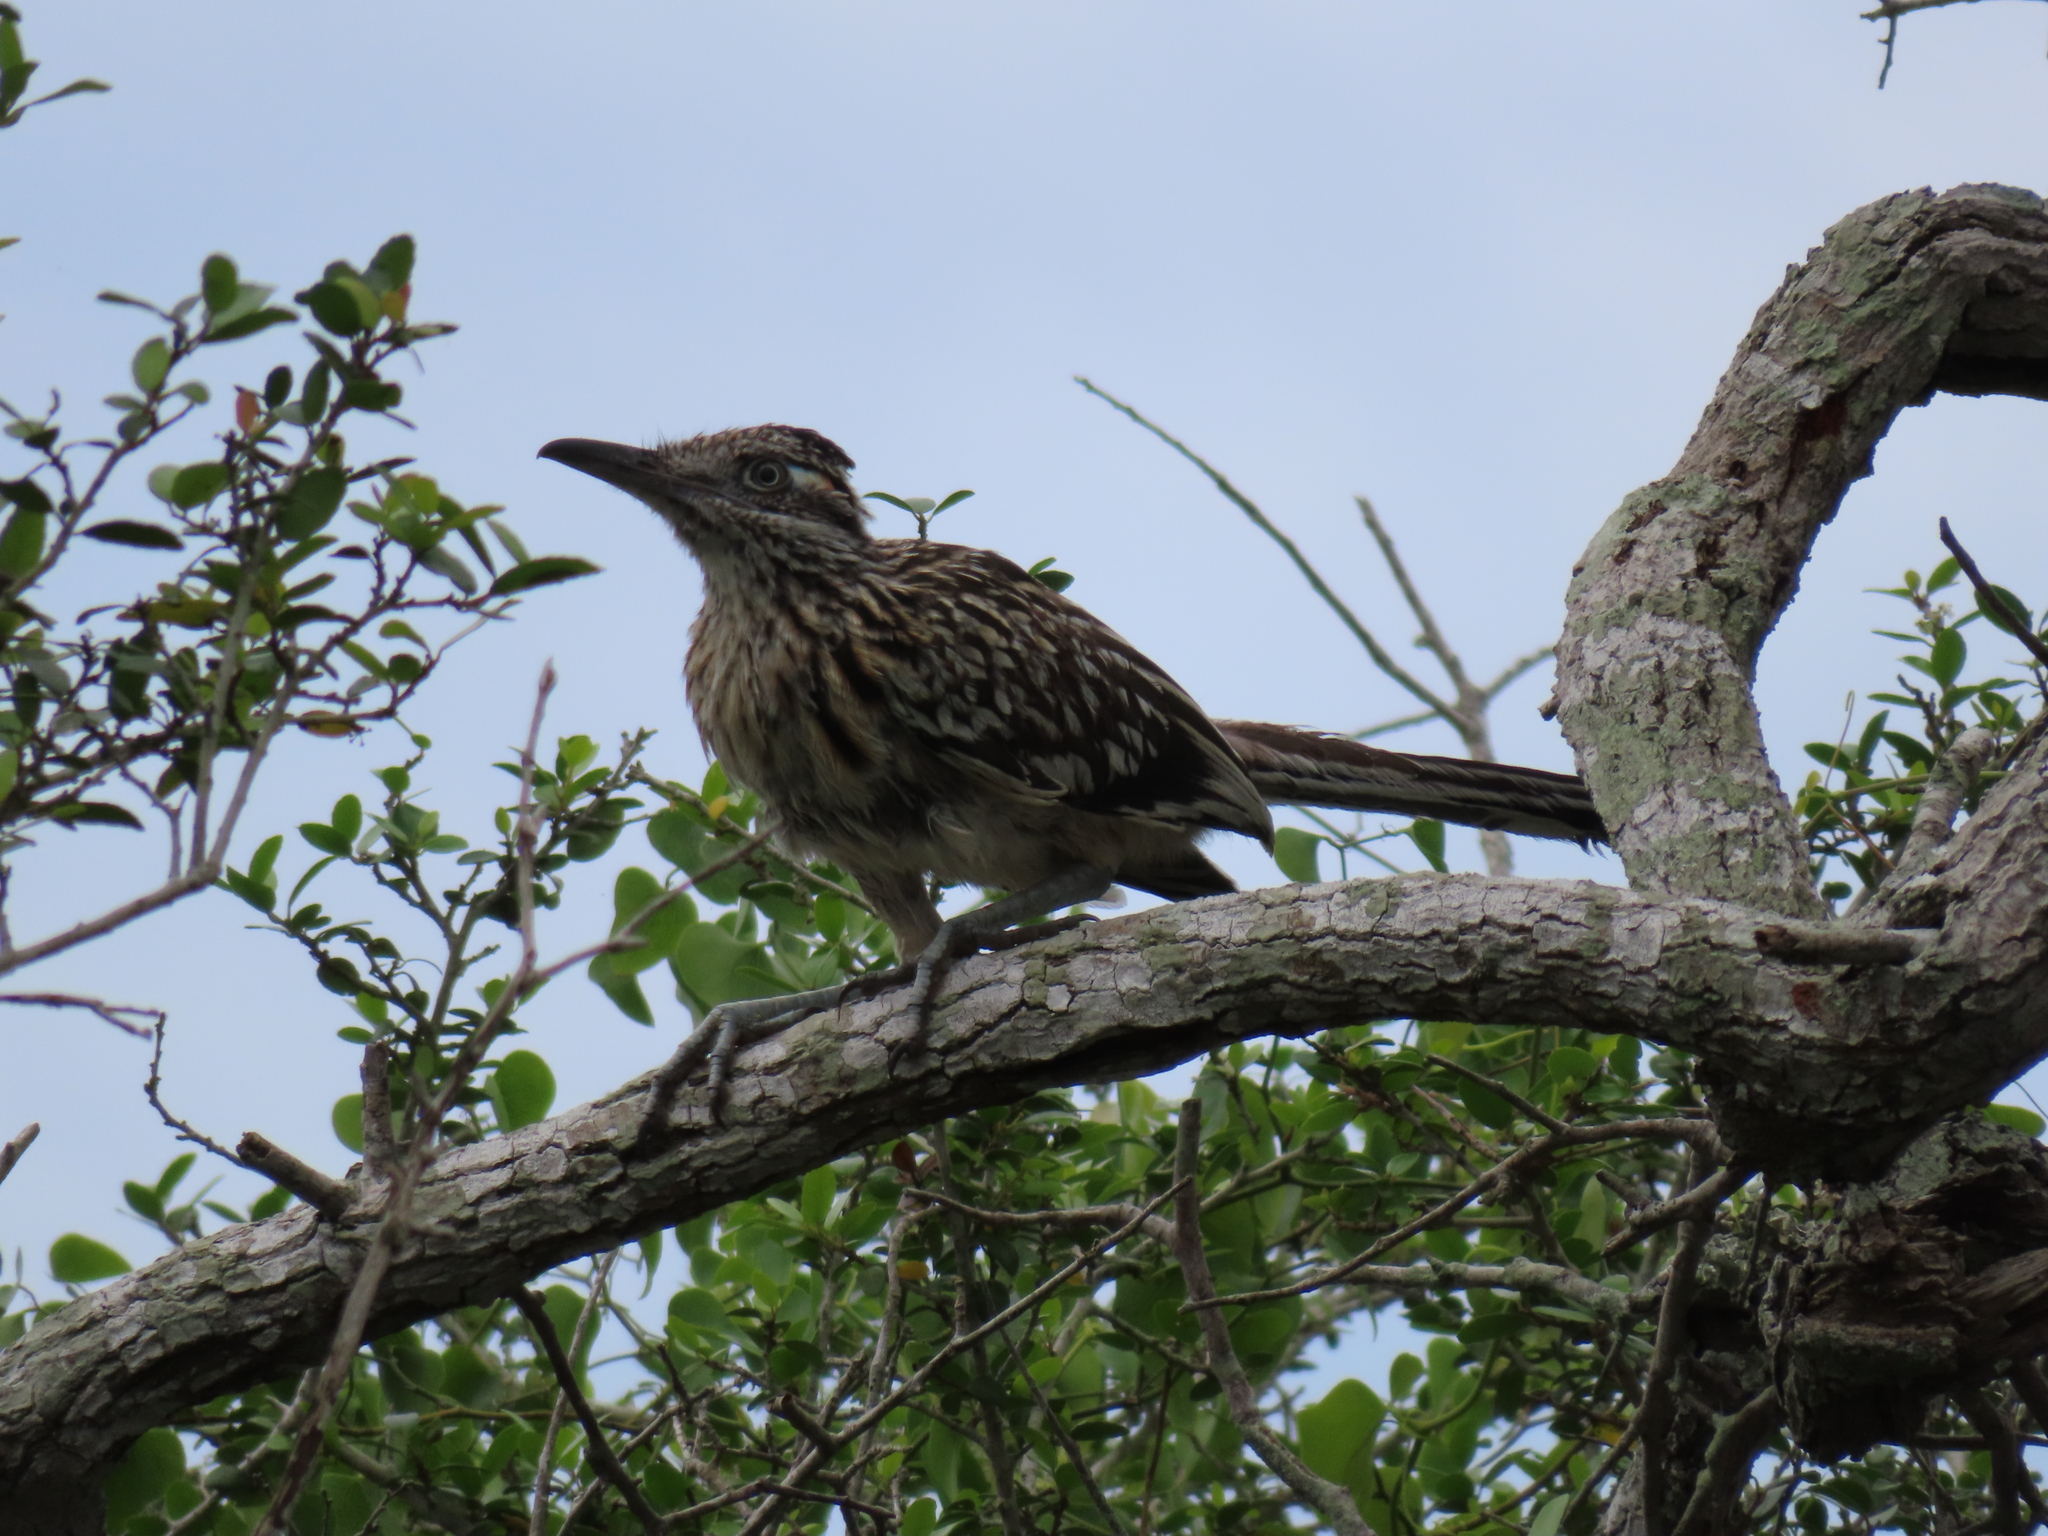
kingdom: Animalia
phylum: Chordata
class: Aves
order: Cuculiformes
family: Cuculidae
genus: Geococcyx
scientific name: Geococcyx californianus
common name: Greater roadrunner
